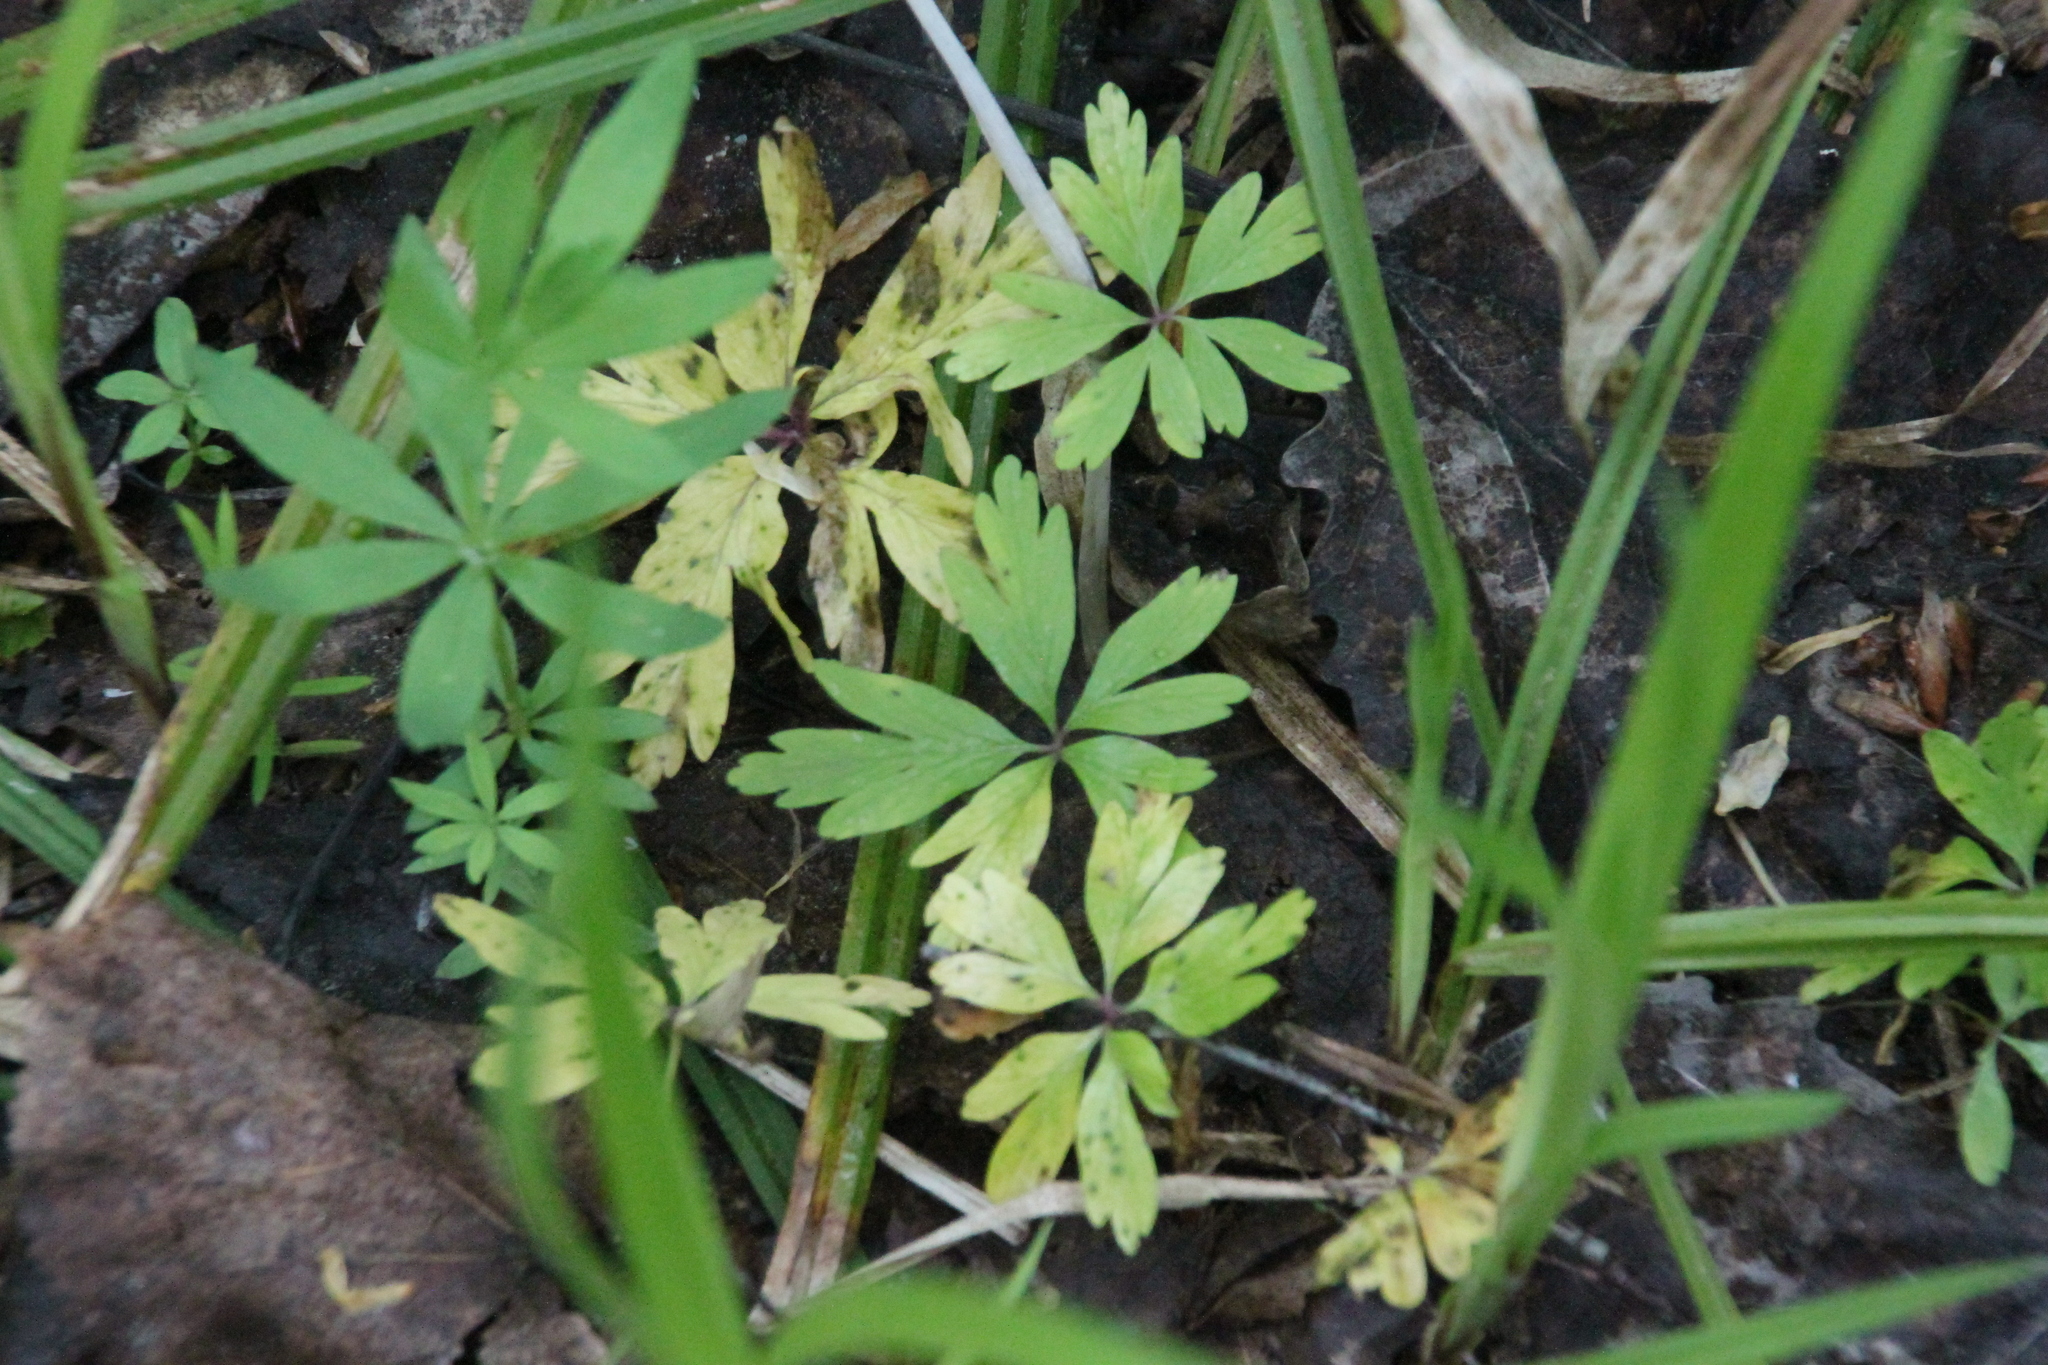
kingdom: Plantae
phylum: Tracheophyta
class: Magnoliopsida
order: Ranunculales
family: Ranunculaceae
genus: Anemone
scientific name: Anemone ranunculoides
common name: Yellow anemone
